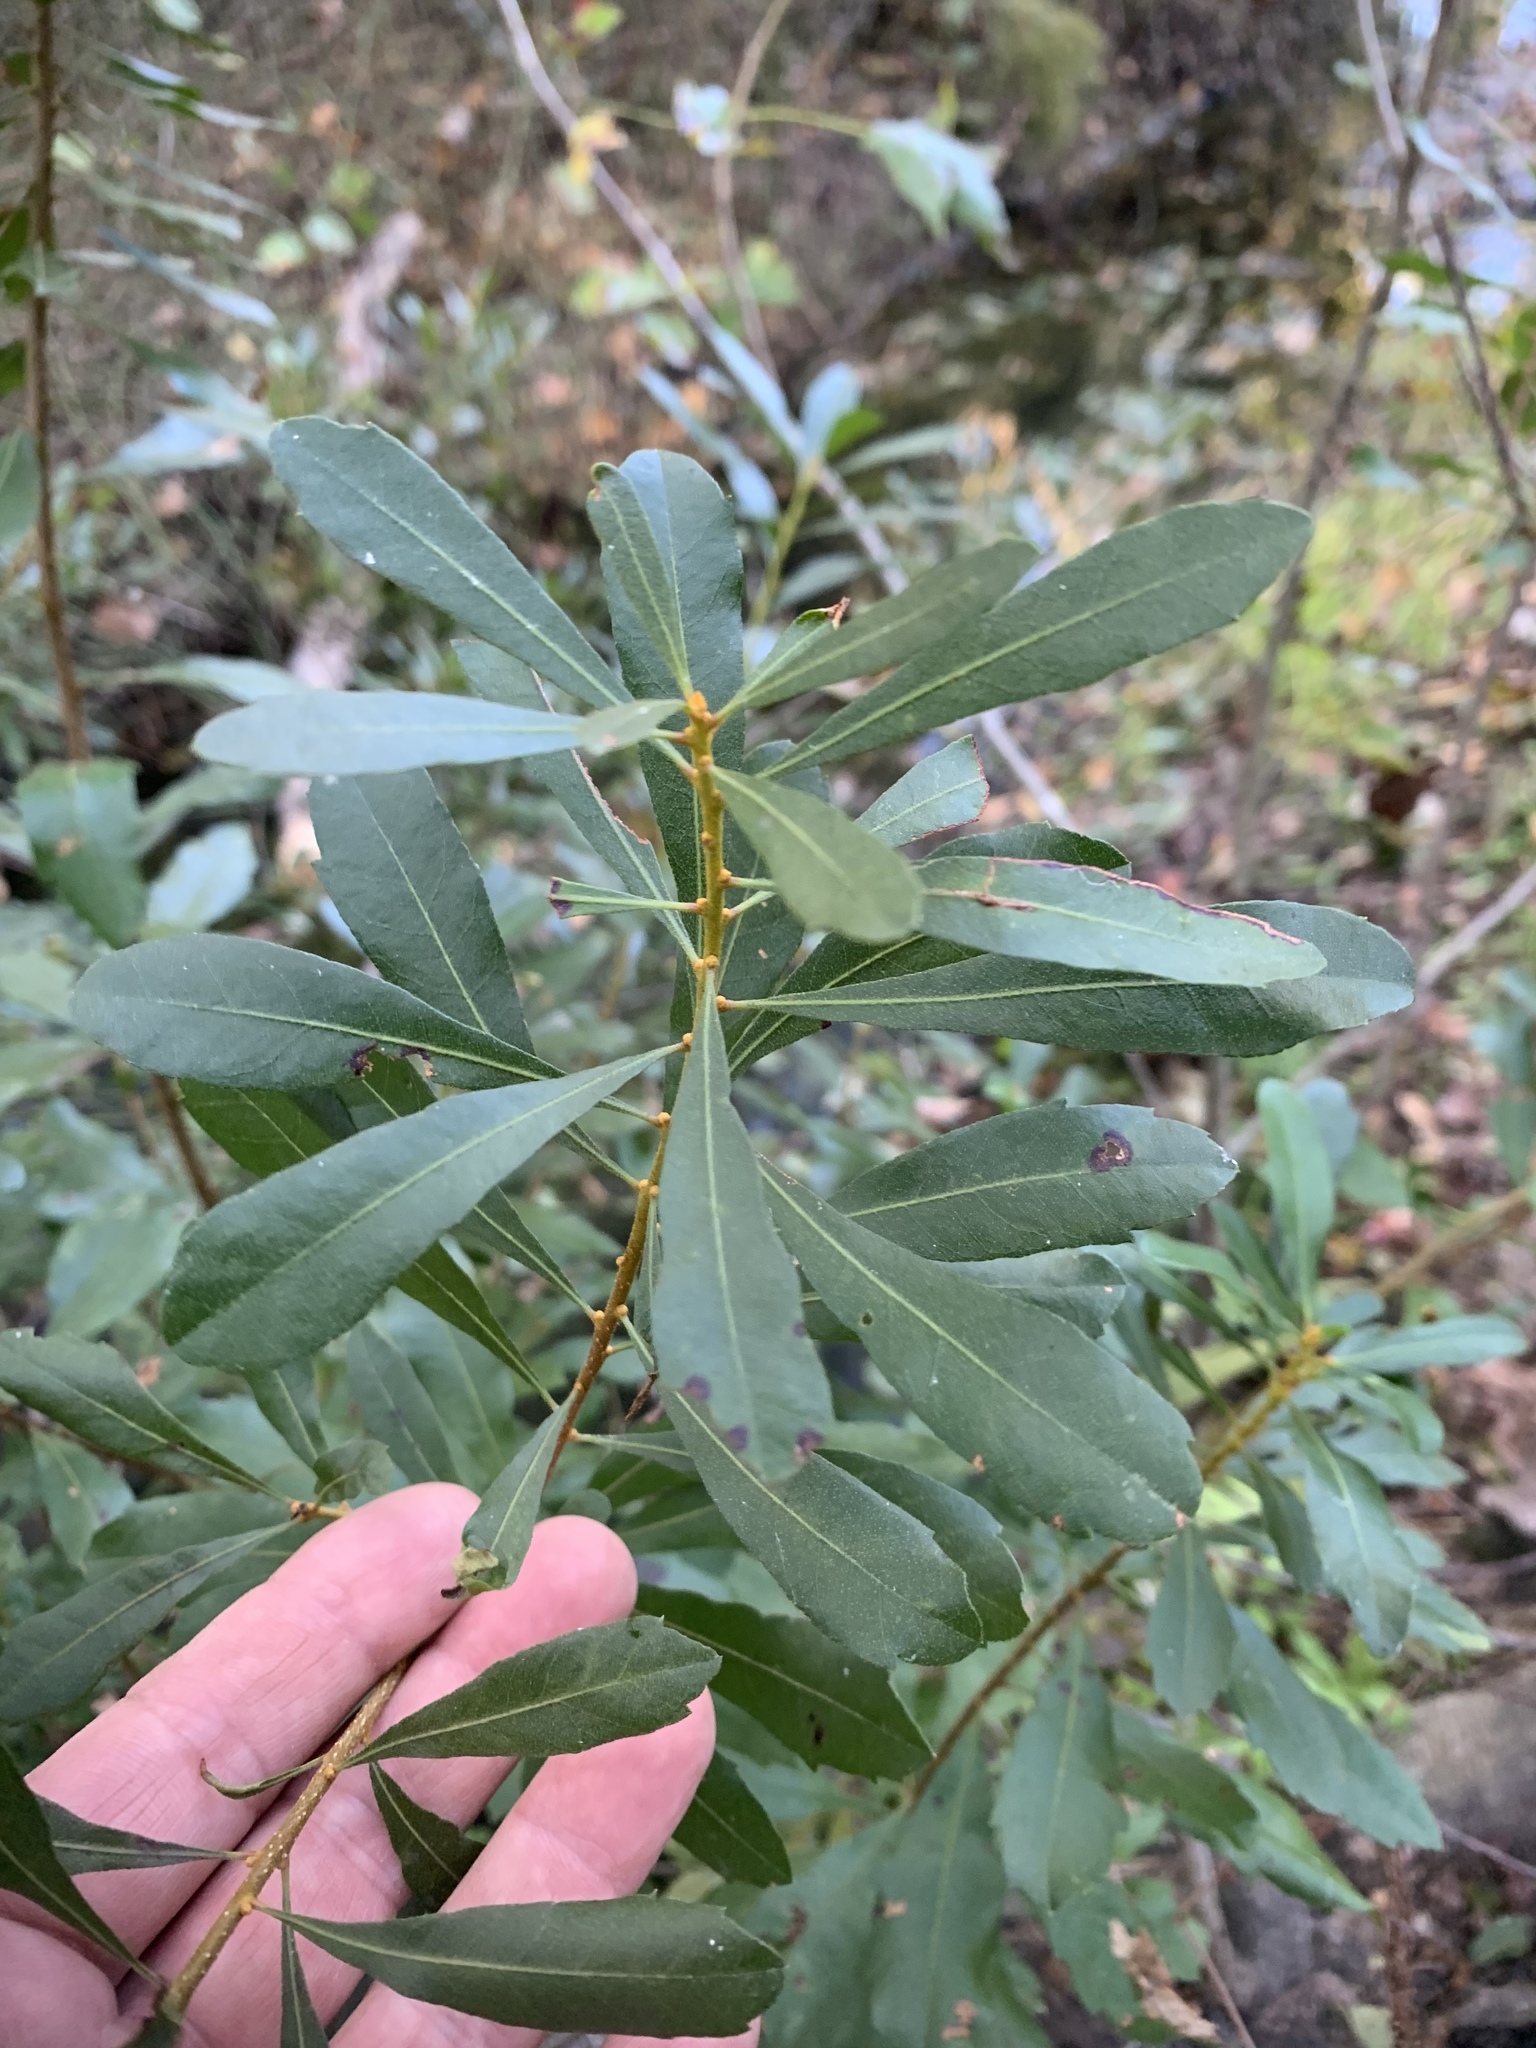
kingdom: Plantae
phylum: Tracheophyta
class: Magnoliopsida
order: Fagales
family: Myricaceae
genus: Morella
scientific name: Morella cerifera
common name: Wax myrtle
